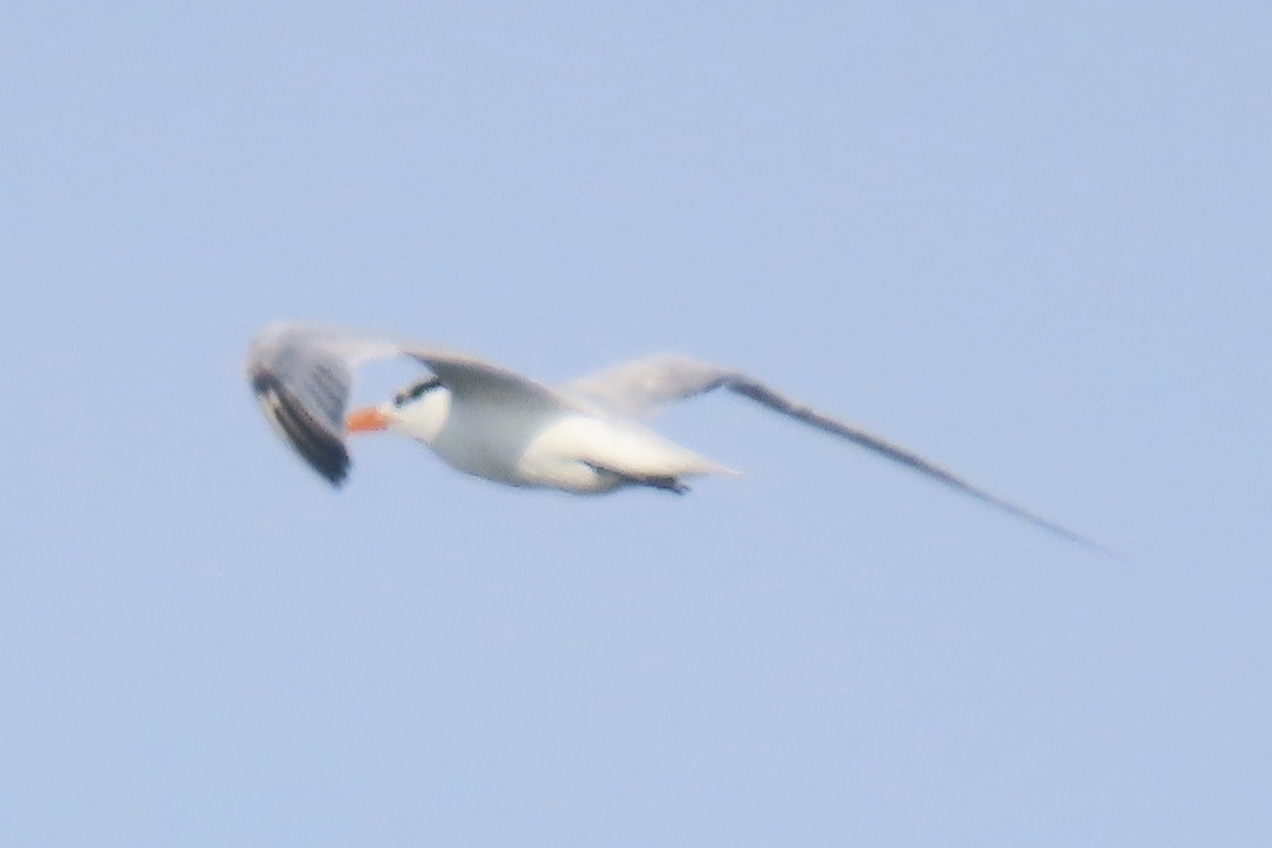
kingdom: Animalia
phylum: Chordata
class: Aves
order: Charadriiformes
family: Laridae
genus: Thalasseus
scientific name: Thalasseus maximus
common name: Royal tern
